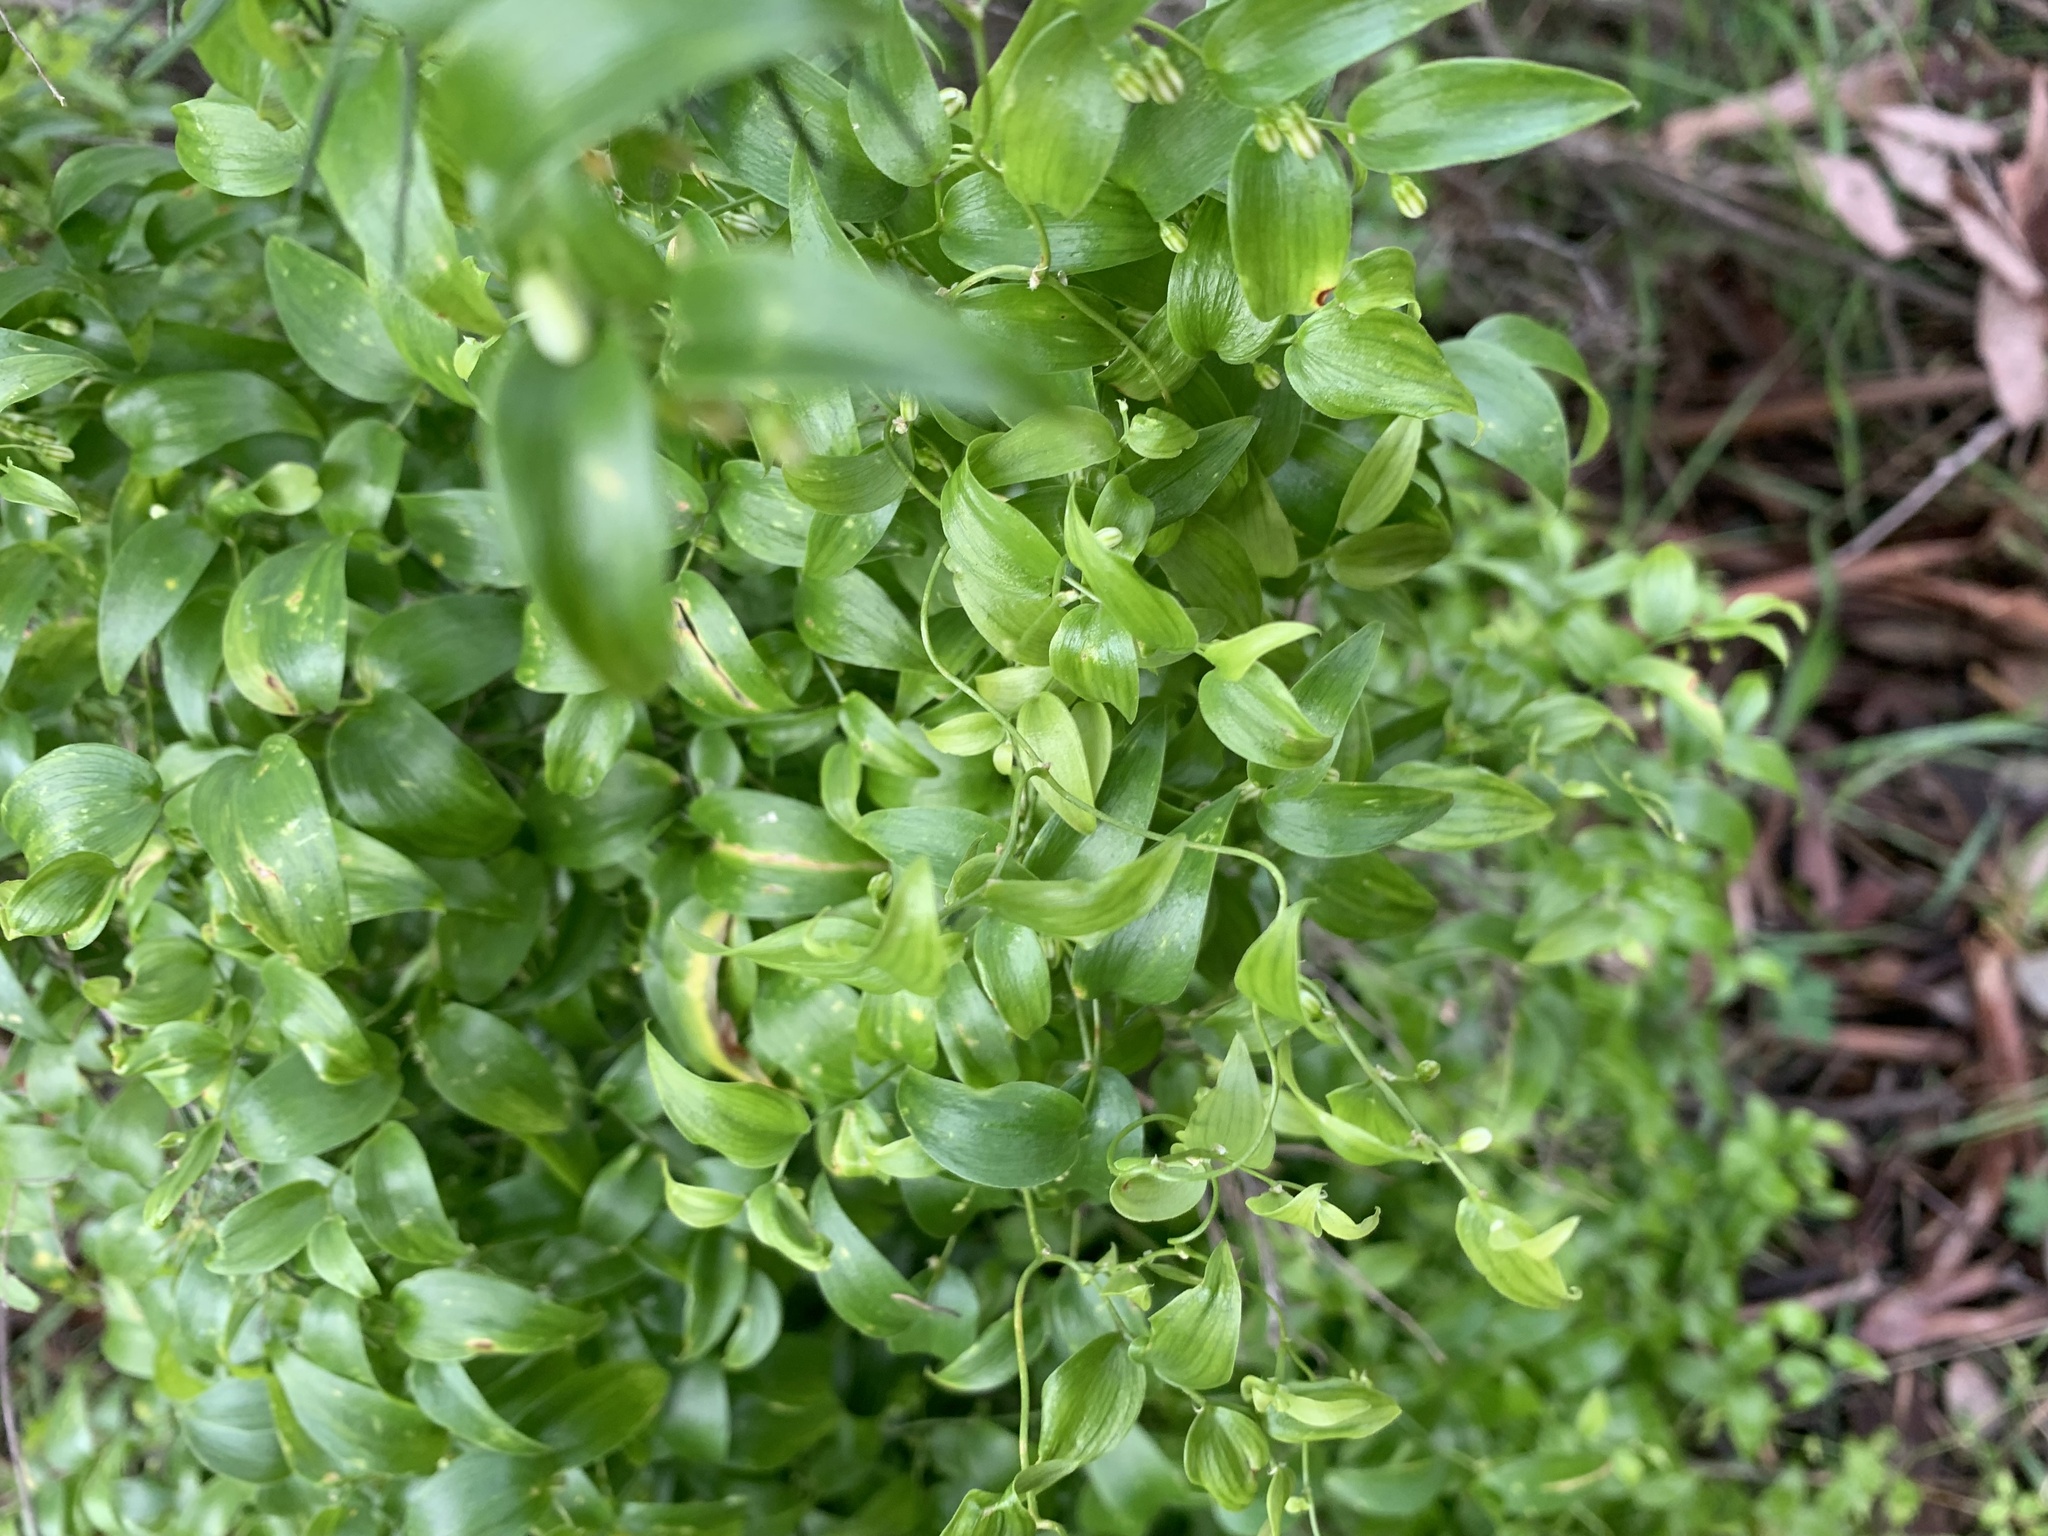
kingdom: Plantae
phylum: Tracheophyta
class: Liliopsida
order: Asparagales
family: Asparagaceae
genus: Asparagus
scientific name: Asparagus asparagoides
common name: African asparagus fern
